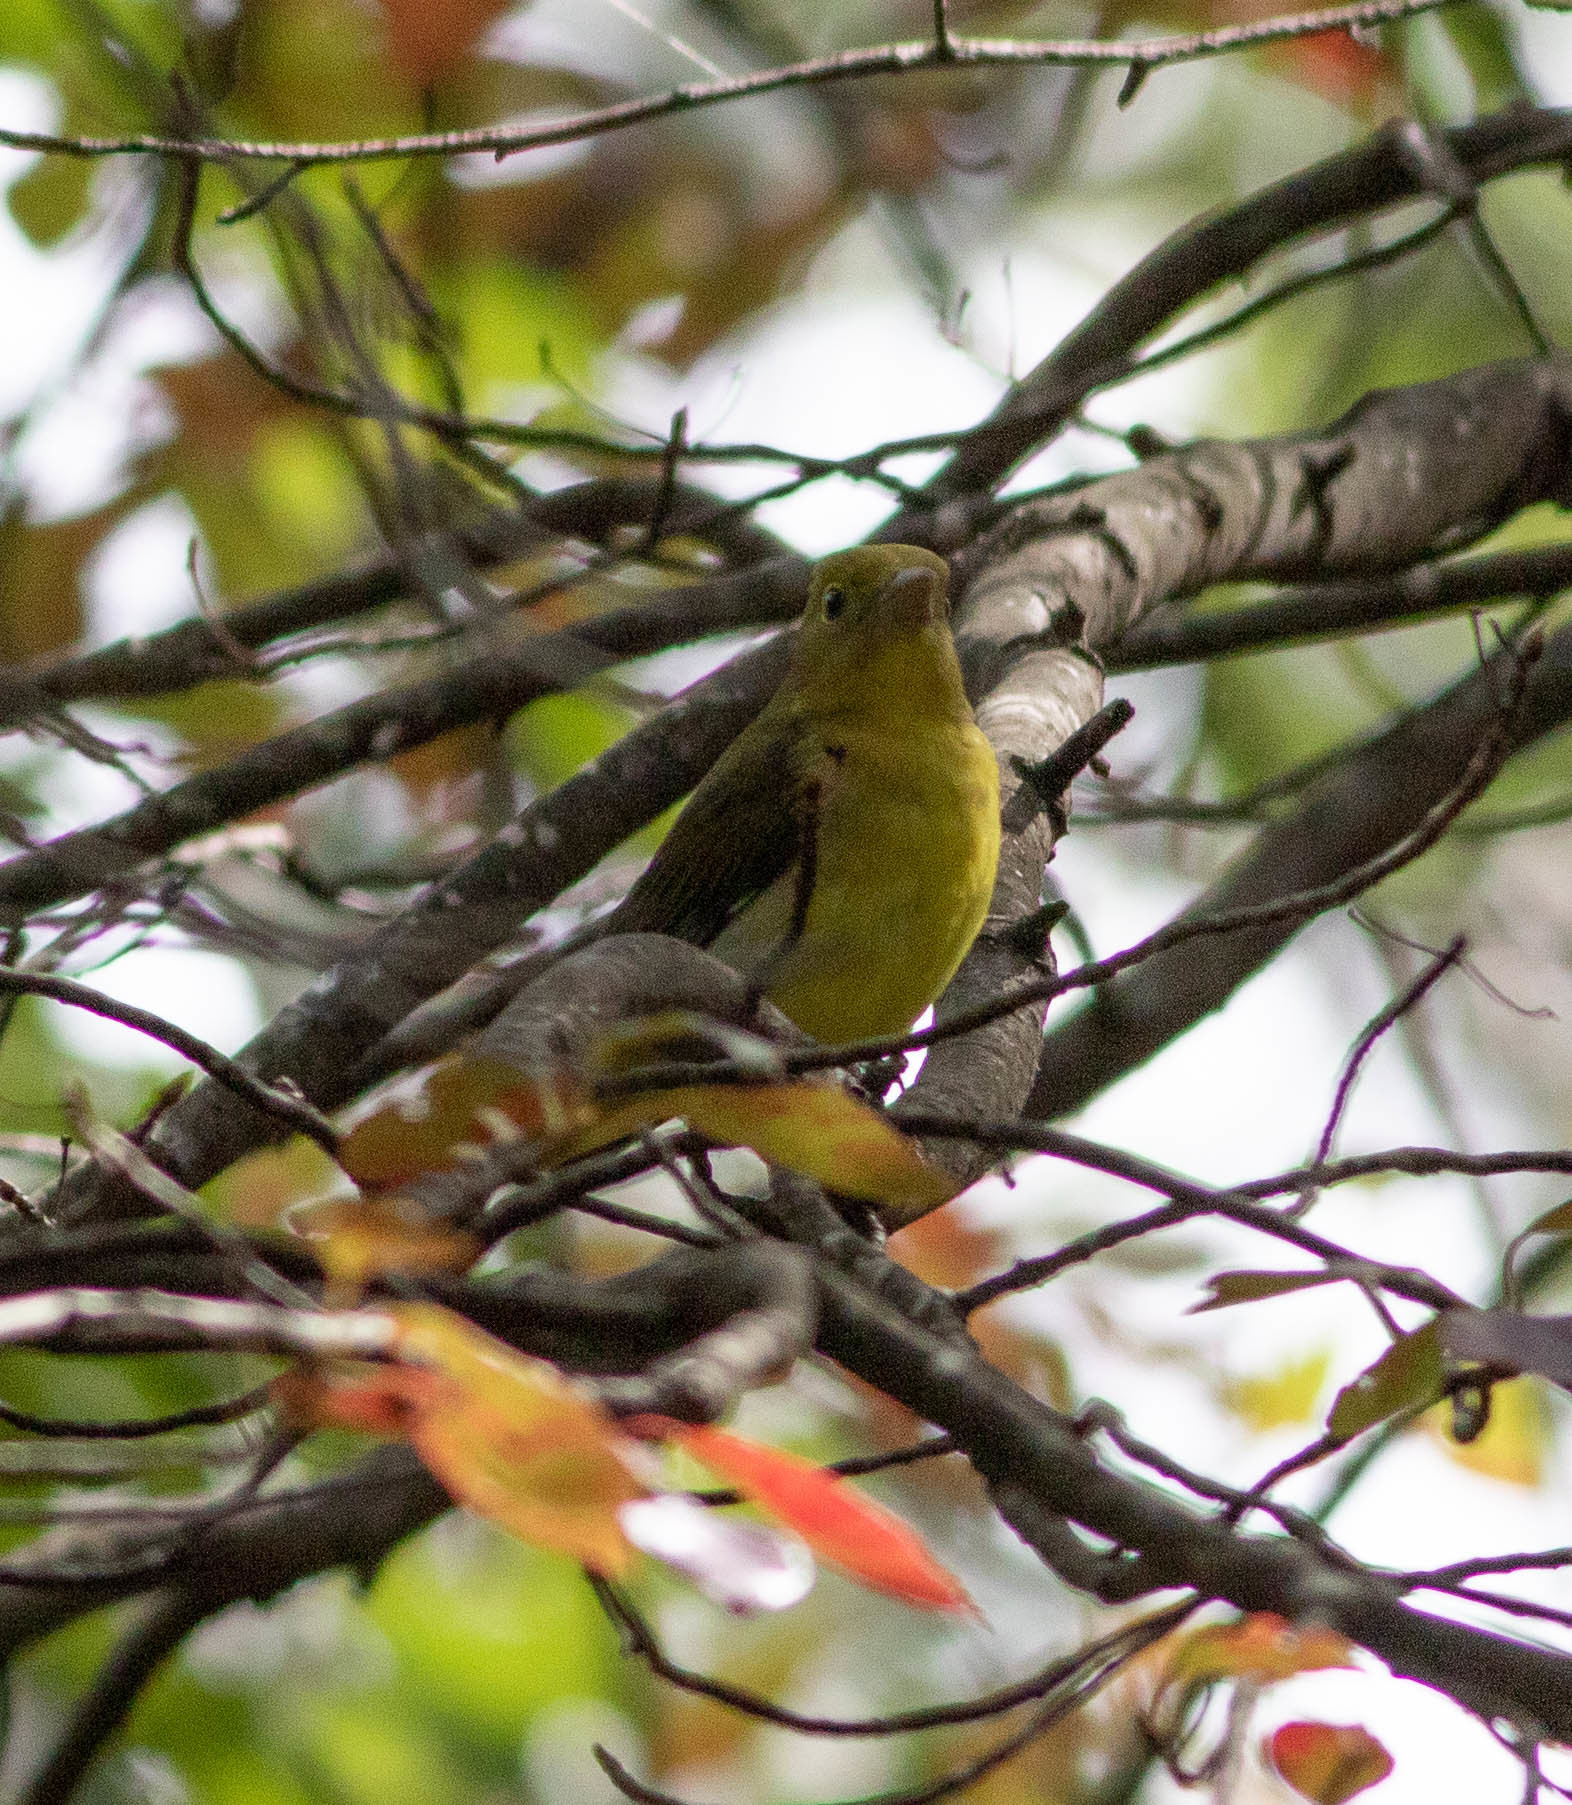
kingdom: Animalia
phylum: Chordata
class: Aves
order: Passeriformes
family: Cardinalidae
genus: Piranga
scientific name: Piranga olivacea
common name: Scarlet tanager
